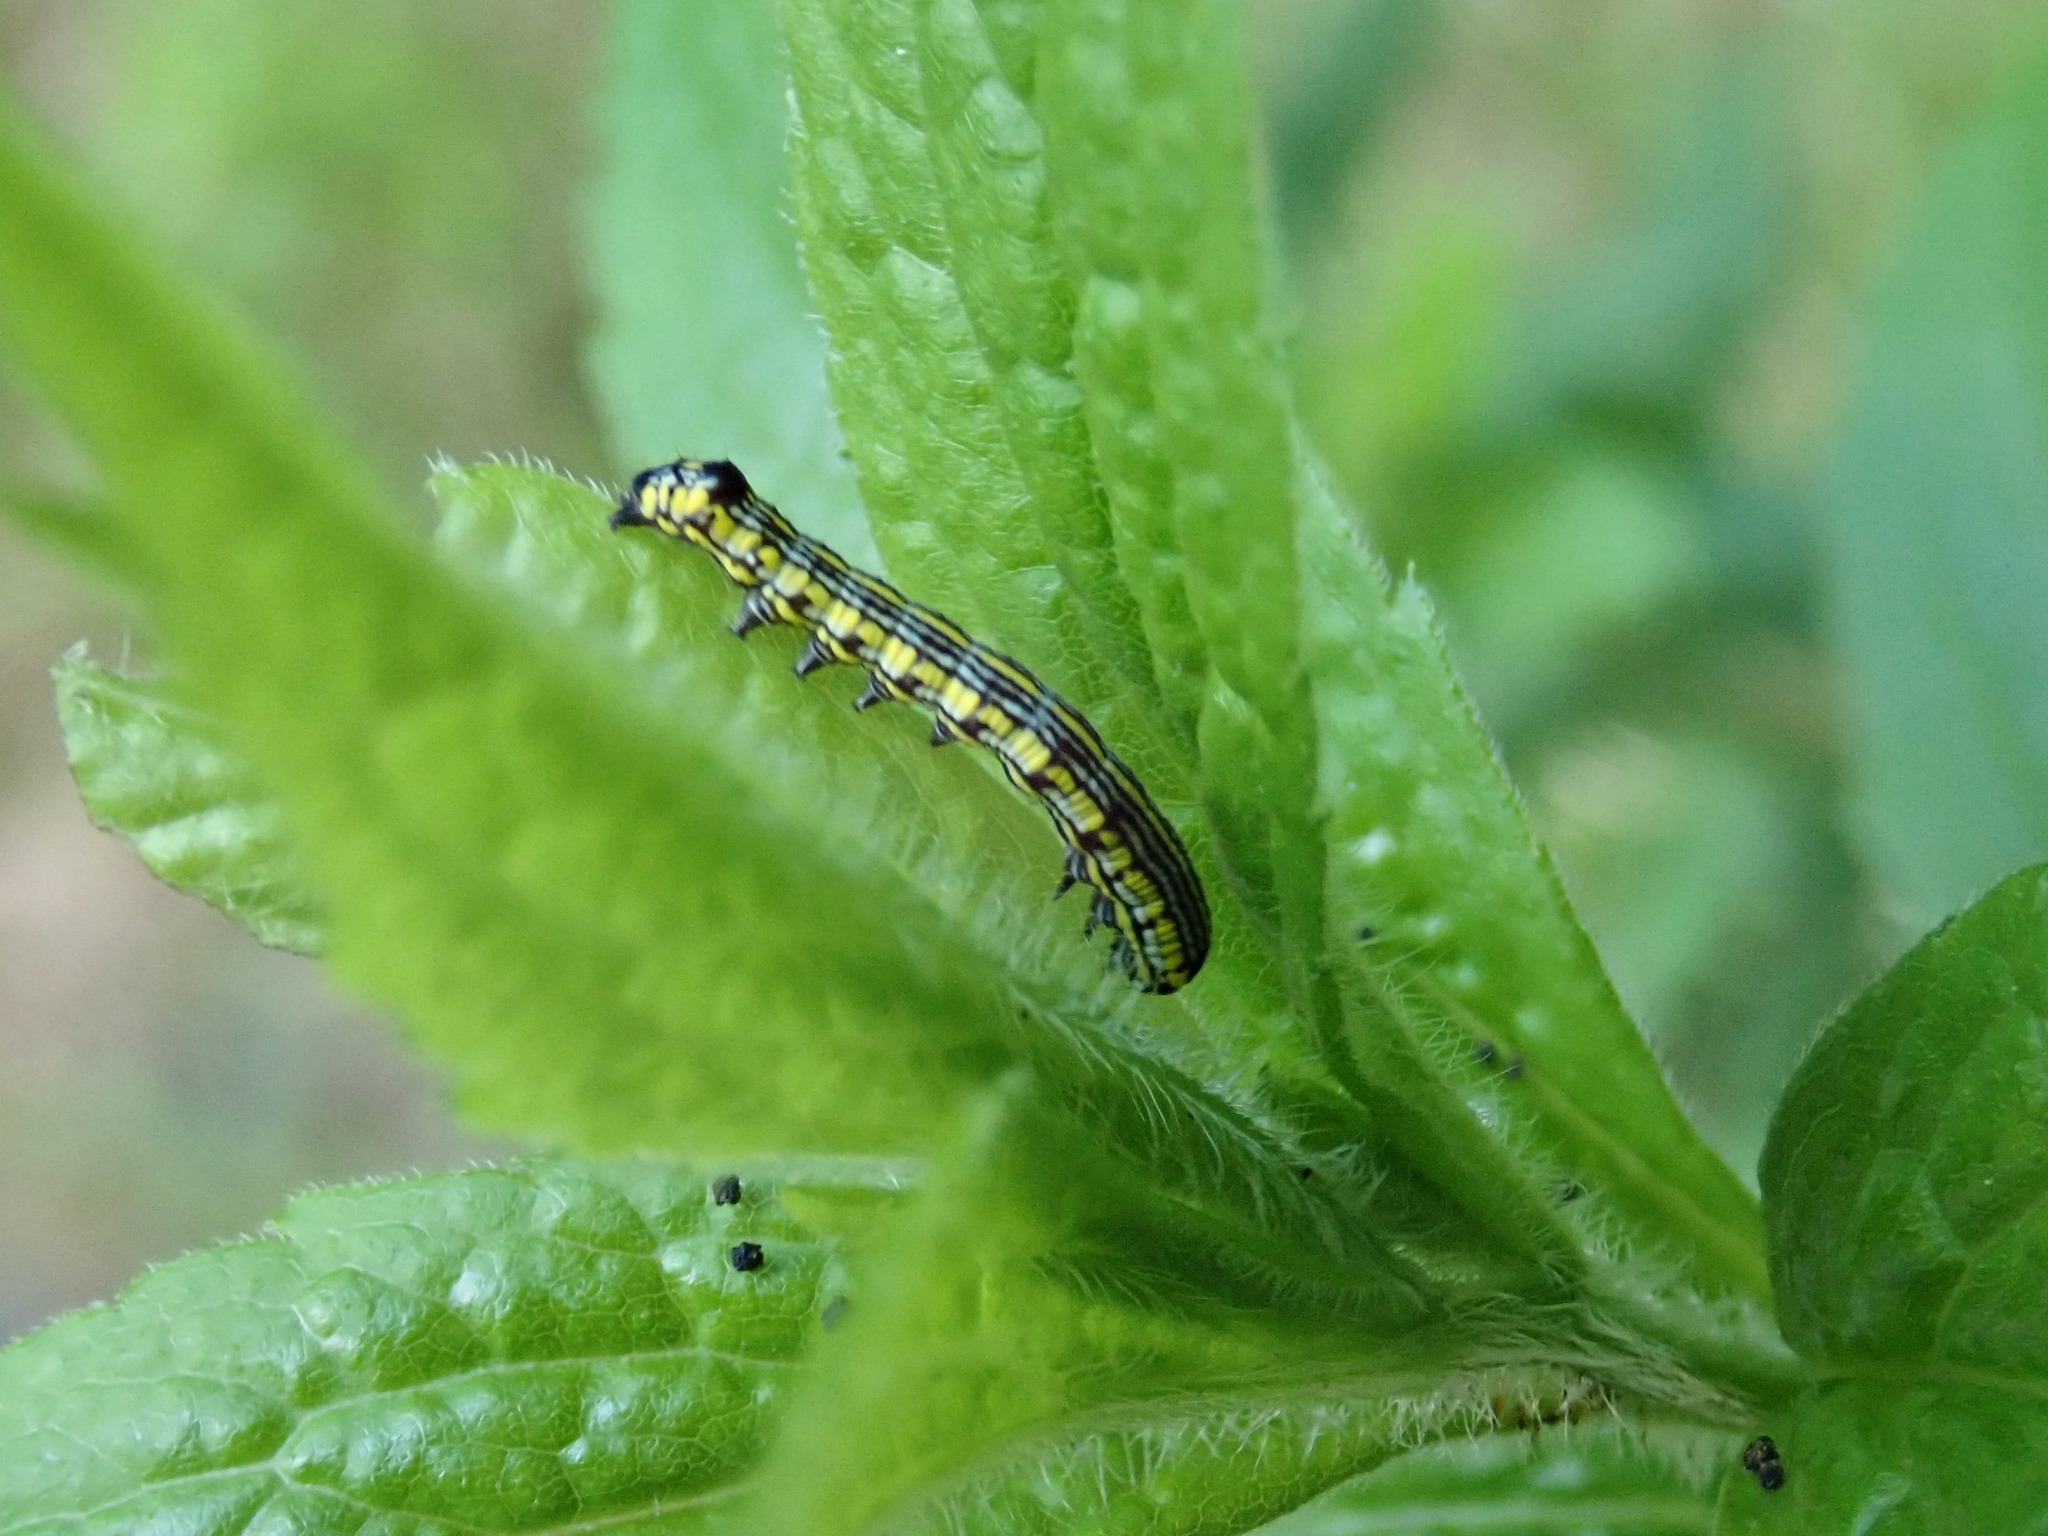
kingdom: Animalia
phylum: Arthropoda
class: Insecta
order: Lepidoptera
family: Noctuidae
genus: Cucullia
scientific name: Cucullia convexipennis
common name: Brown-hooded owlet
